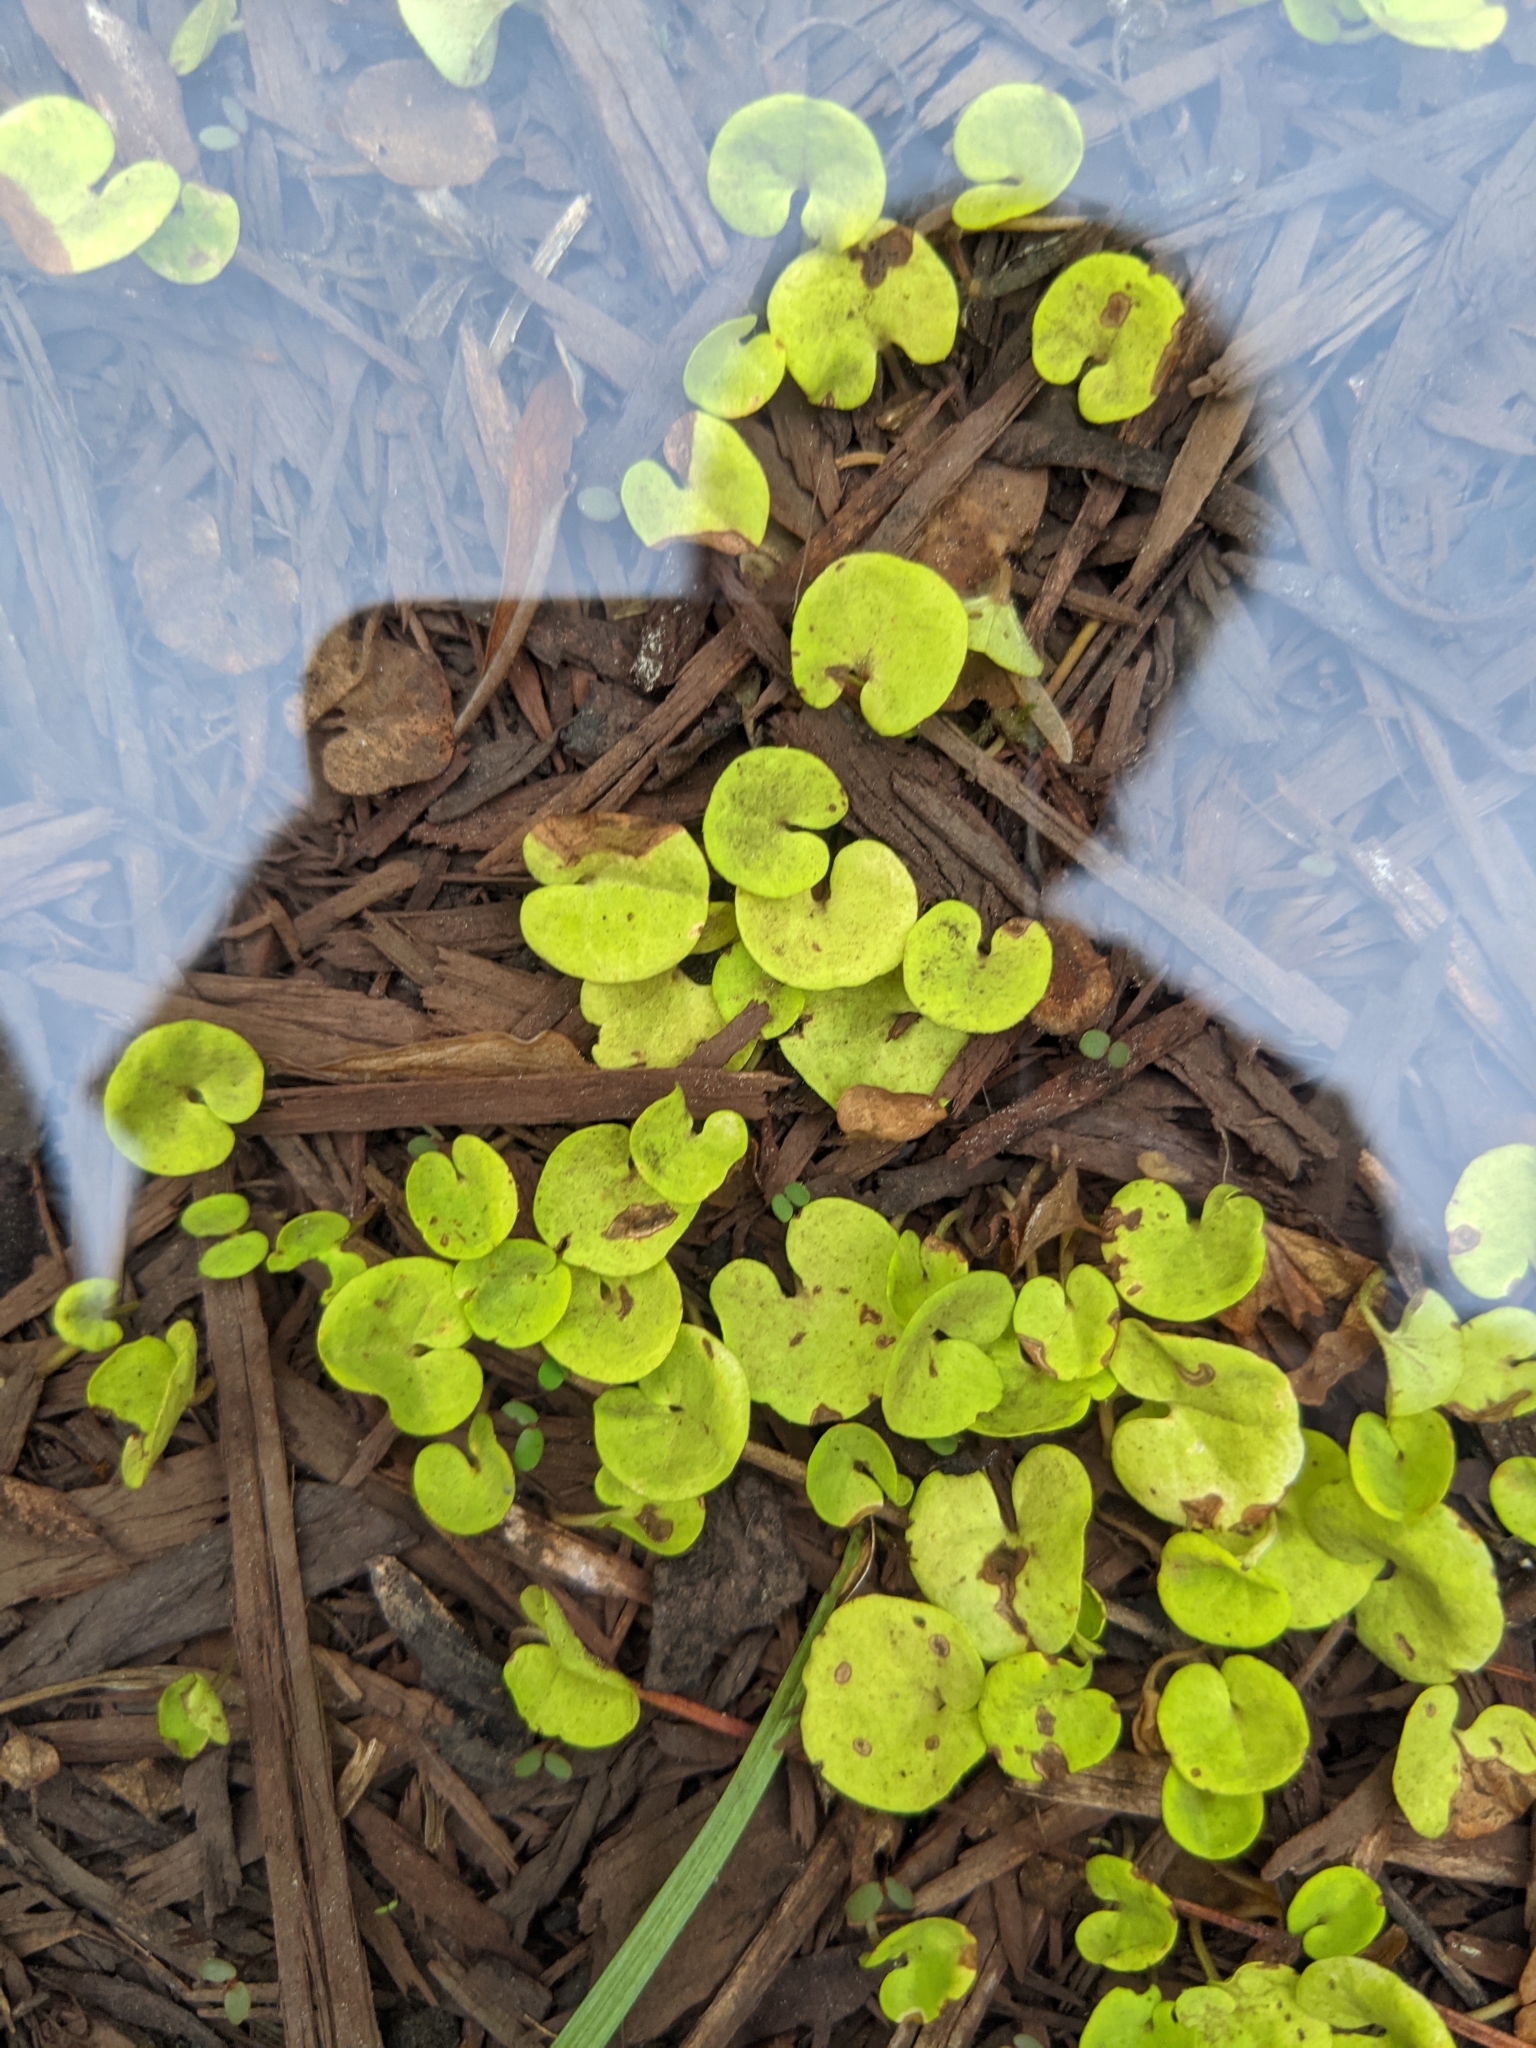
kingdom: Plantae
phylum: Tracheophyta
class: Magnoliopsida
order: Solanales
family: Convolvulaceae
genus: Dichondra
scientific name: Dichondra carolinensis
